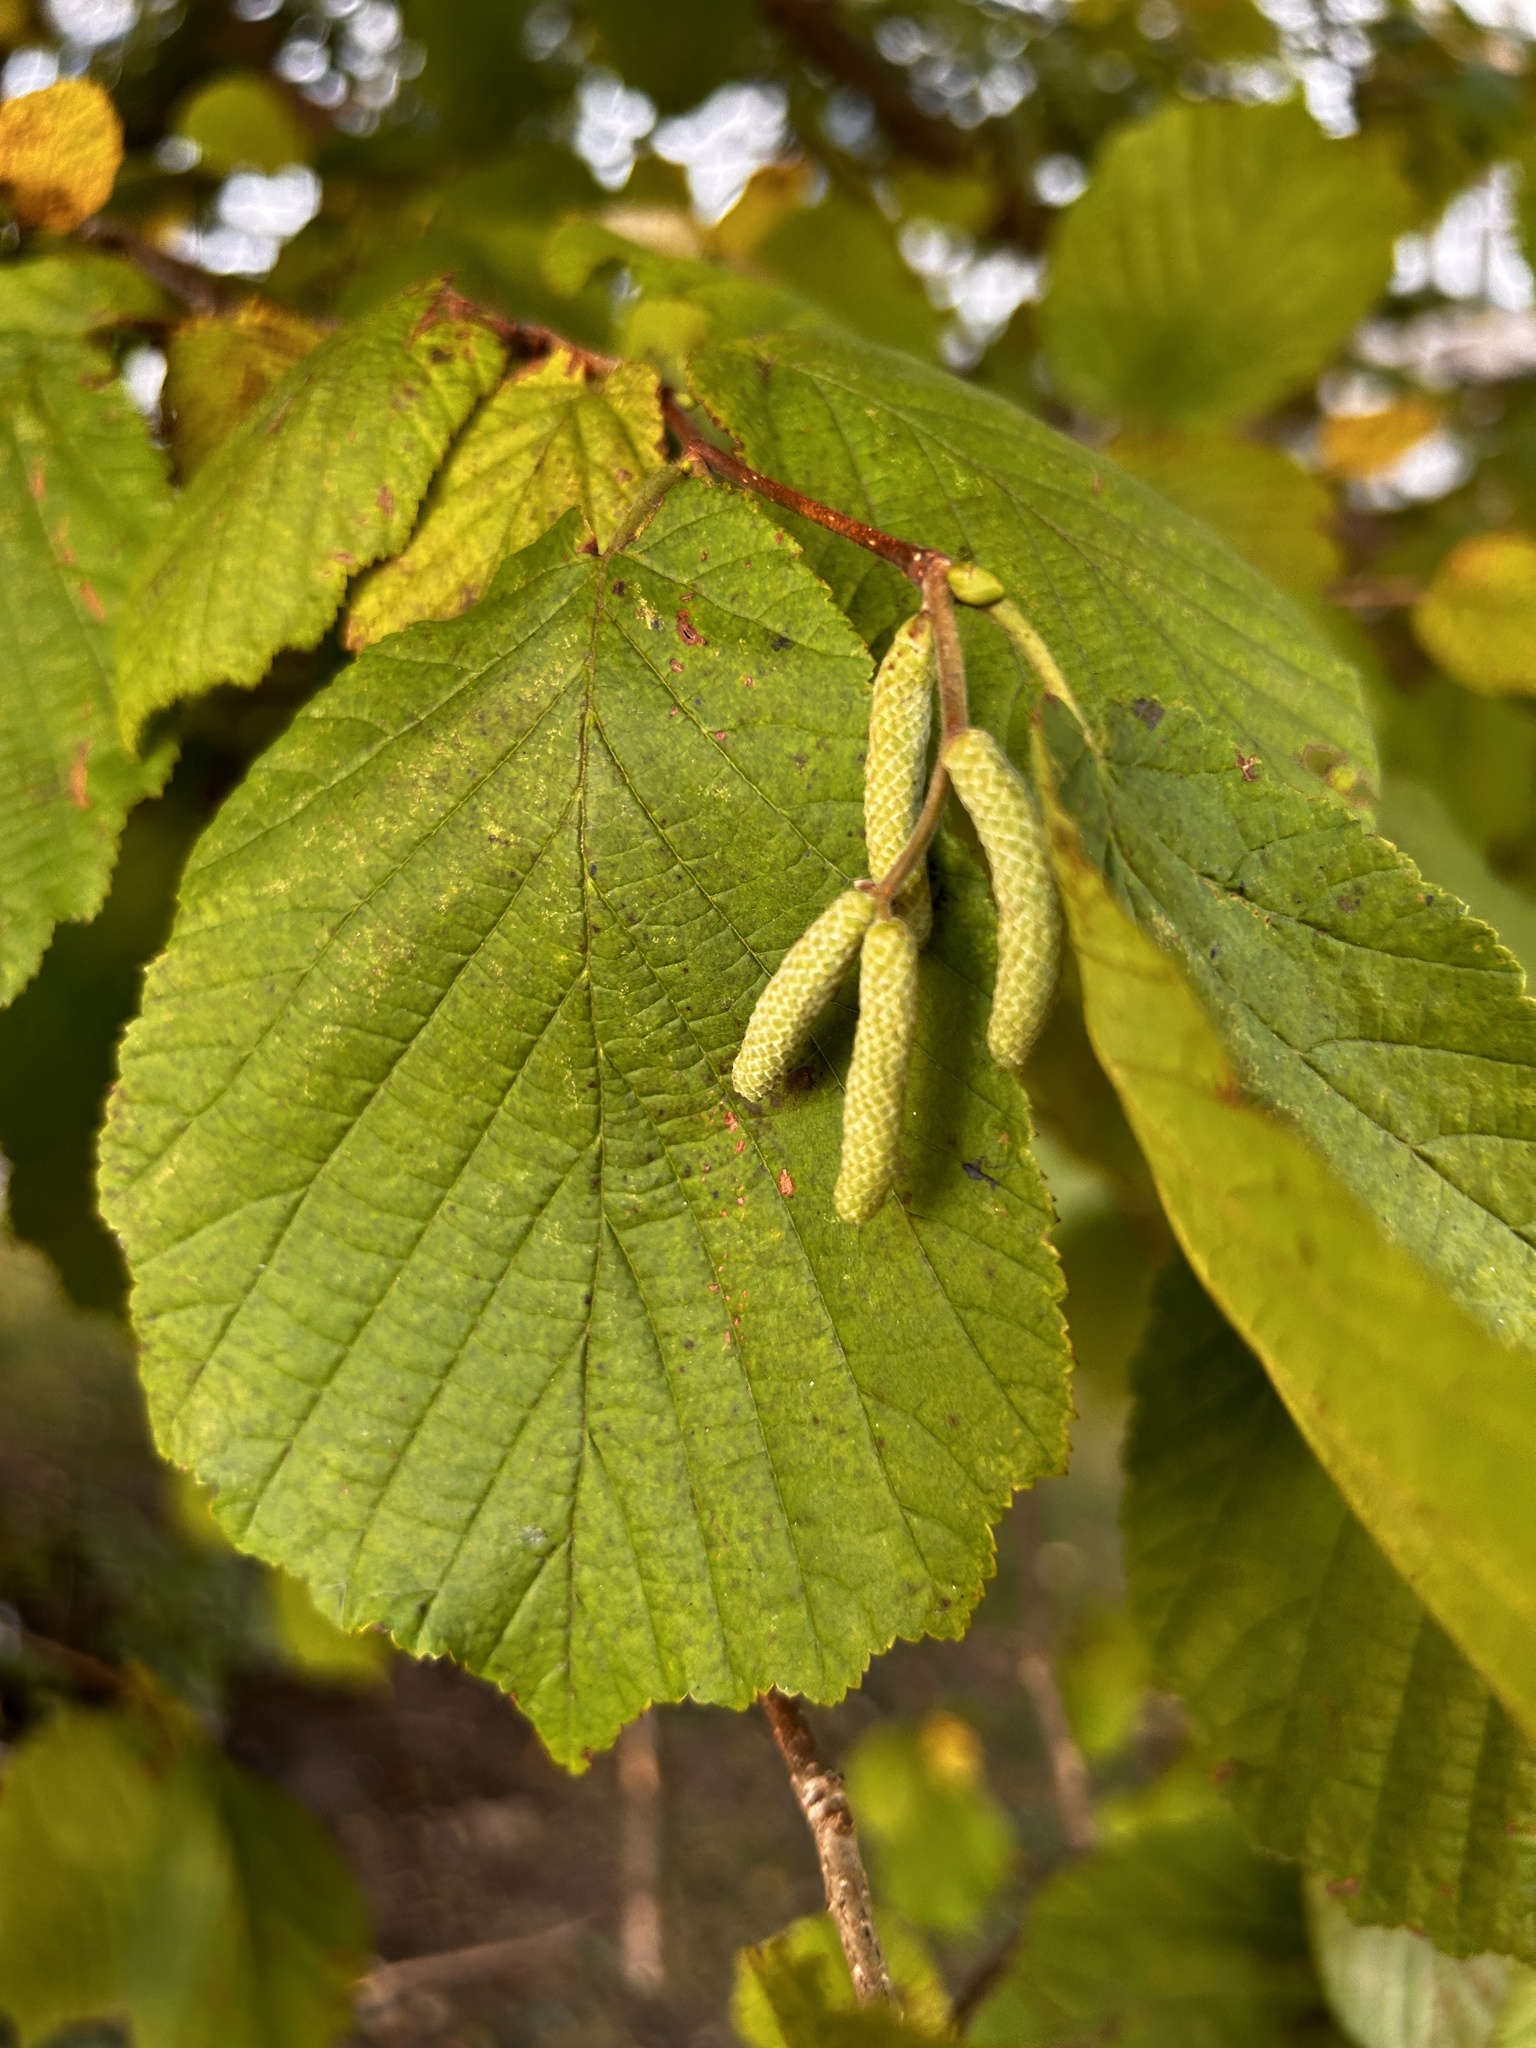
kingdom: Plantae
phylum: Tracheophyta
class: Magnoliopsida
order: Fagales
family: Betulaceae
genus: Corylus
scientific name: Corylus avellana
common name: European hazel
